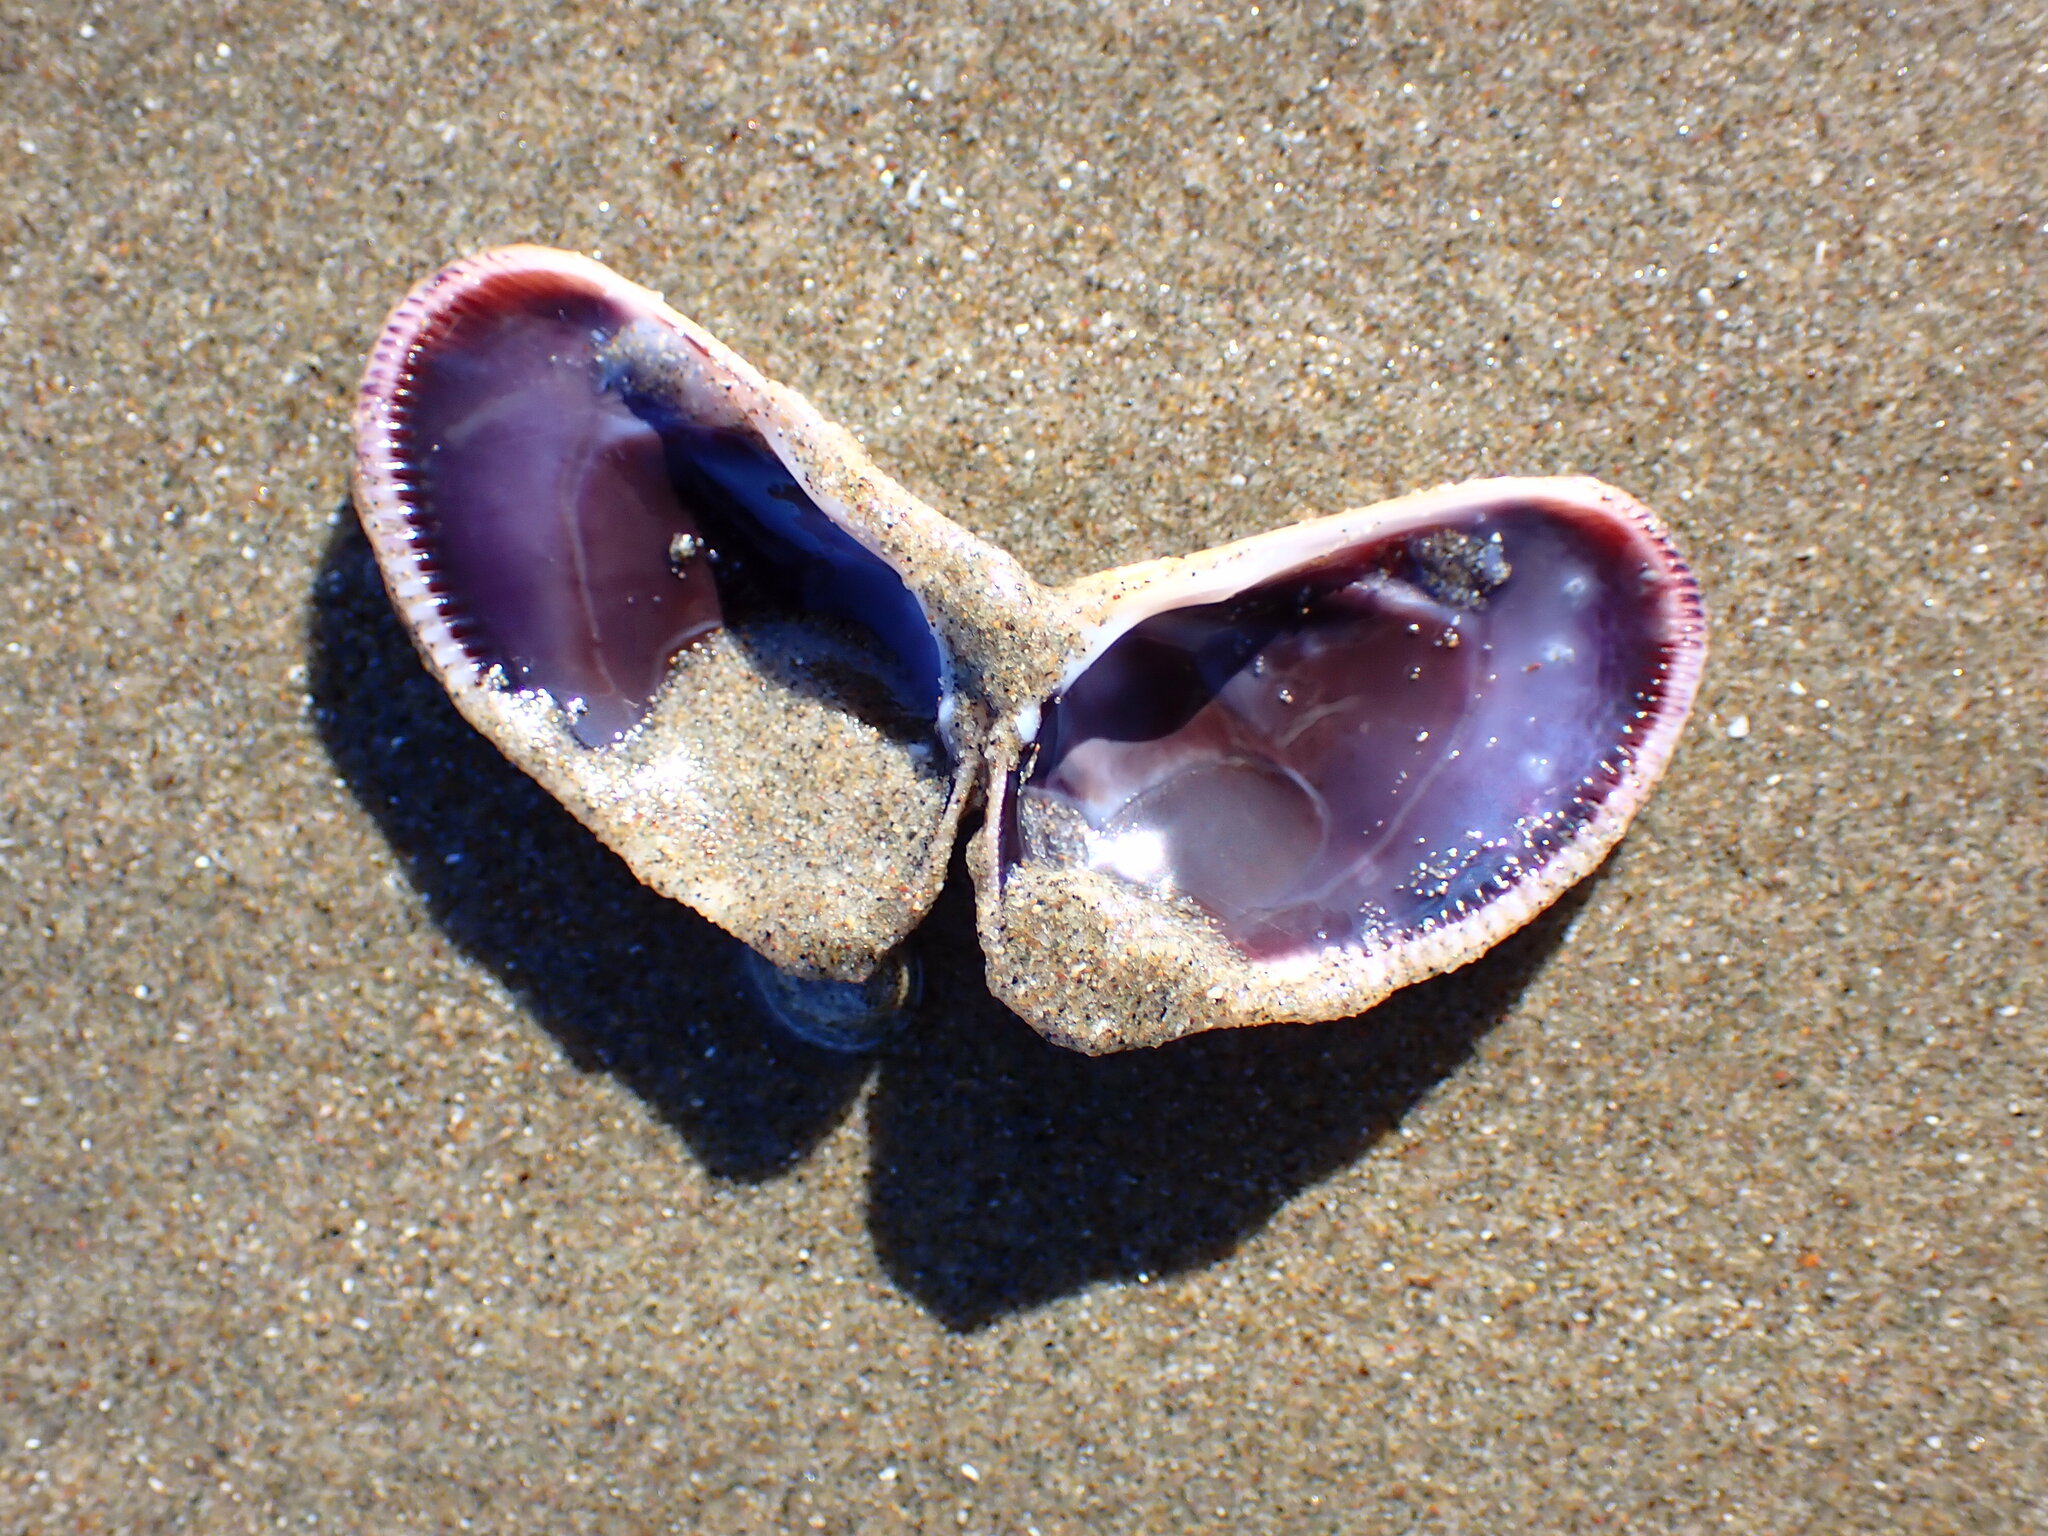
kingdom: Animalia
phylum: Mollusca
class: Bivalvia
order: Cardiida
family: Donacidae
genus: Donax
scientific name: Donax gouldii
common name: Gould beanclam
